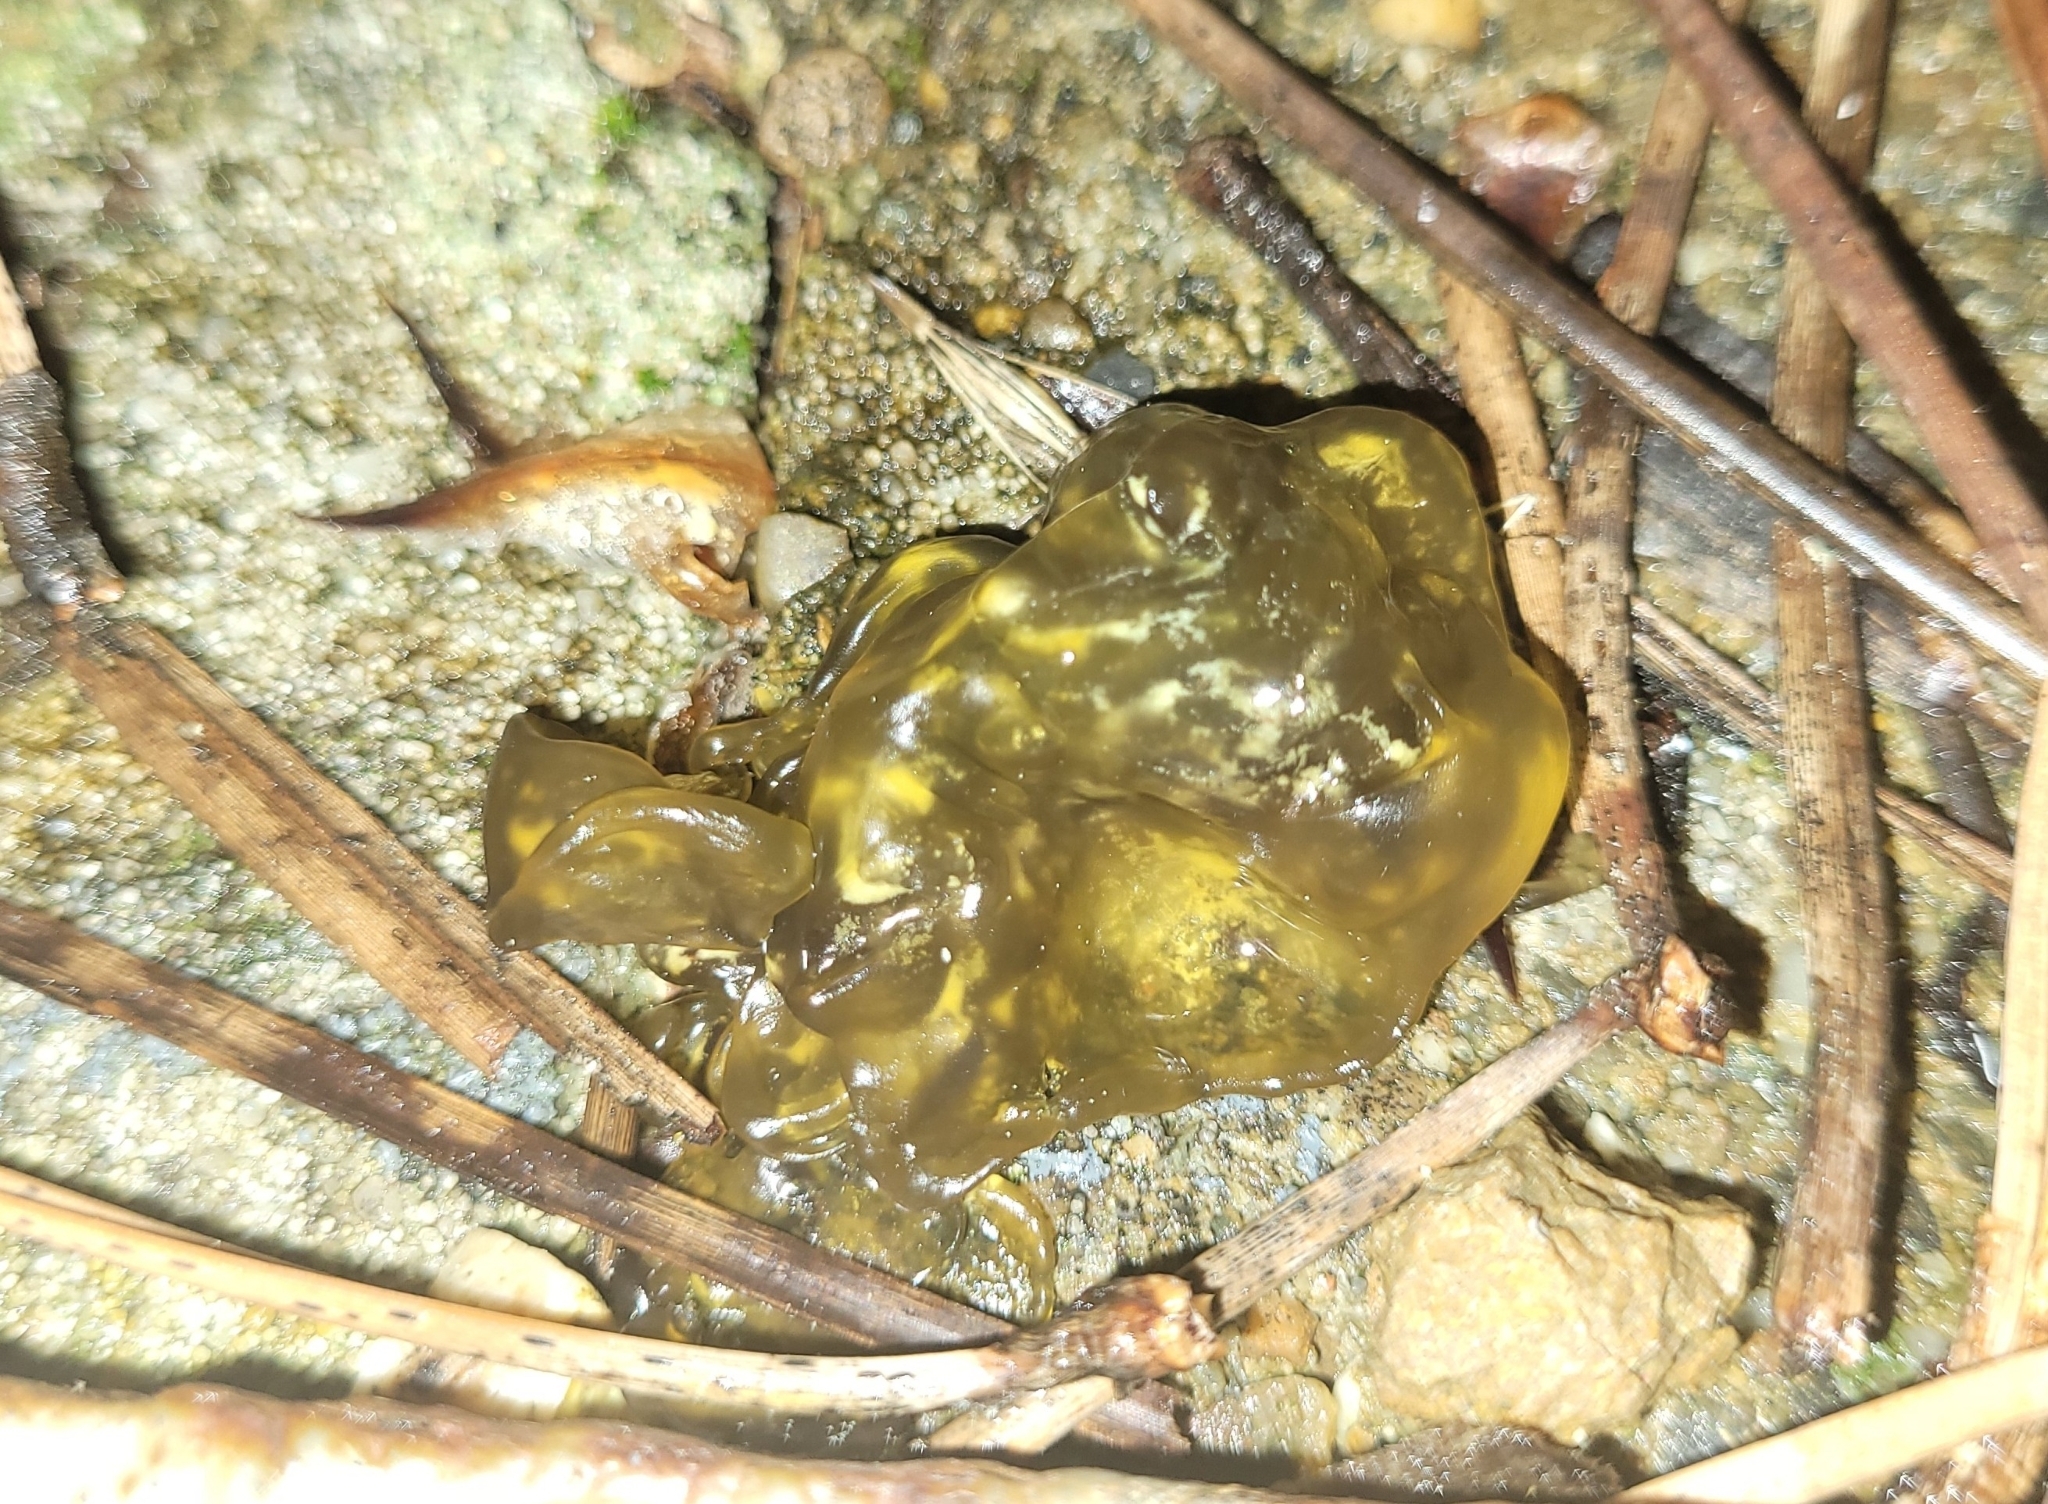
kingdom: Bacteria
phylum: Cyanobacteria
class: Cyanobacteriia
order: Cyanobacteriales
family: Nostocaceae
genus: Nostoc
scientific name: Nostoc commune
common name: Star jelly
